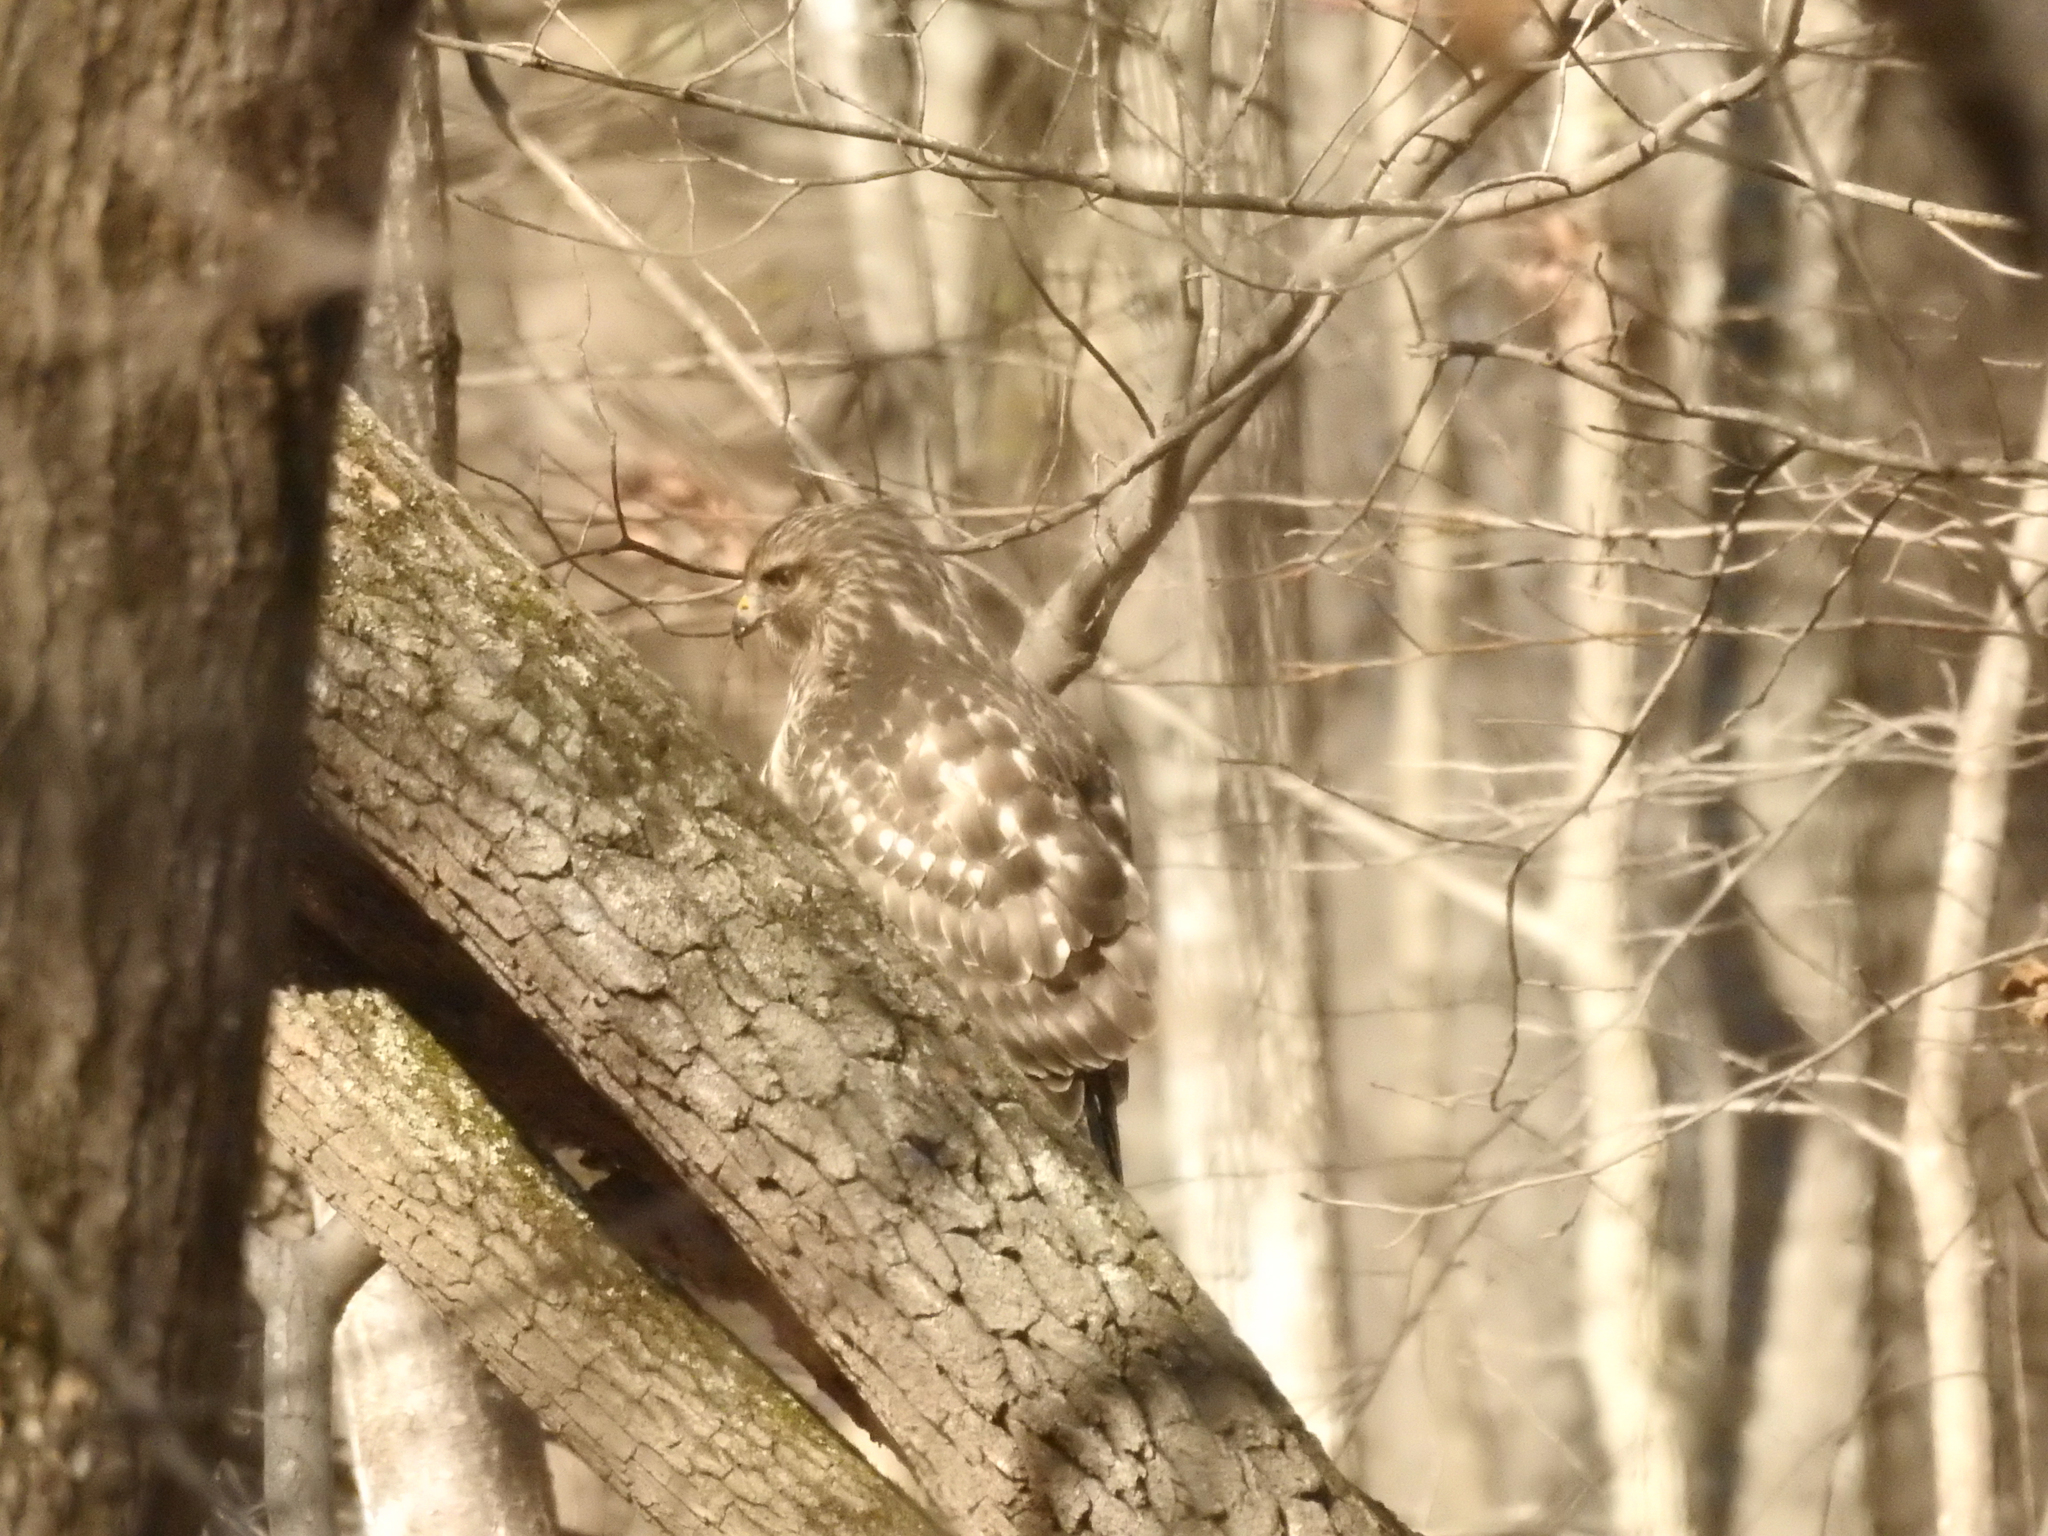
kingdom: Animalia
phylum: Chordata
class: Aves
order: Accipitriformes
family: Accipitridae
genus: Buteo
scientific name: Buteo lineatus
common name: Red-shouldered hawk
